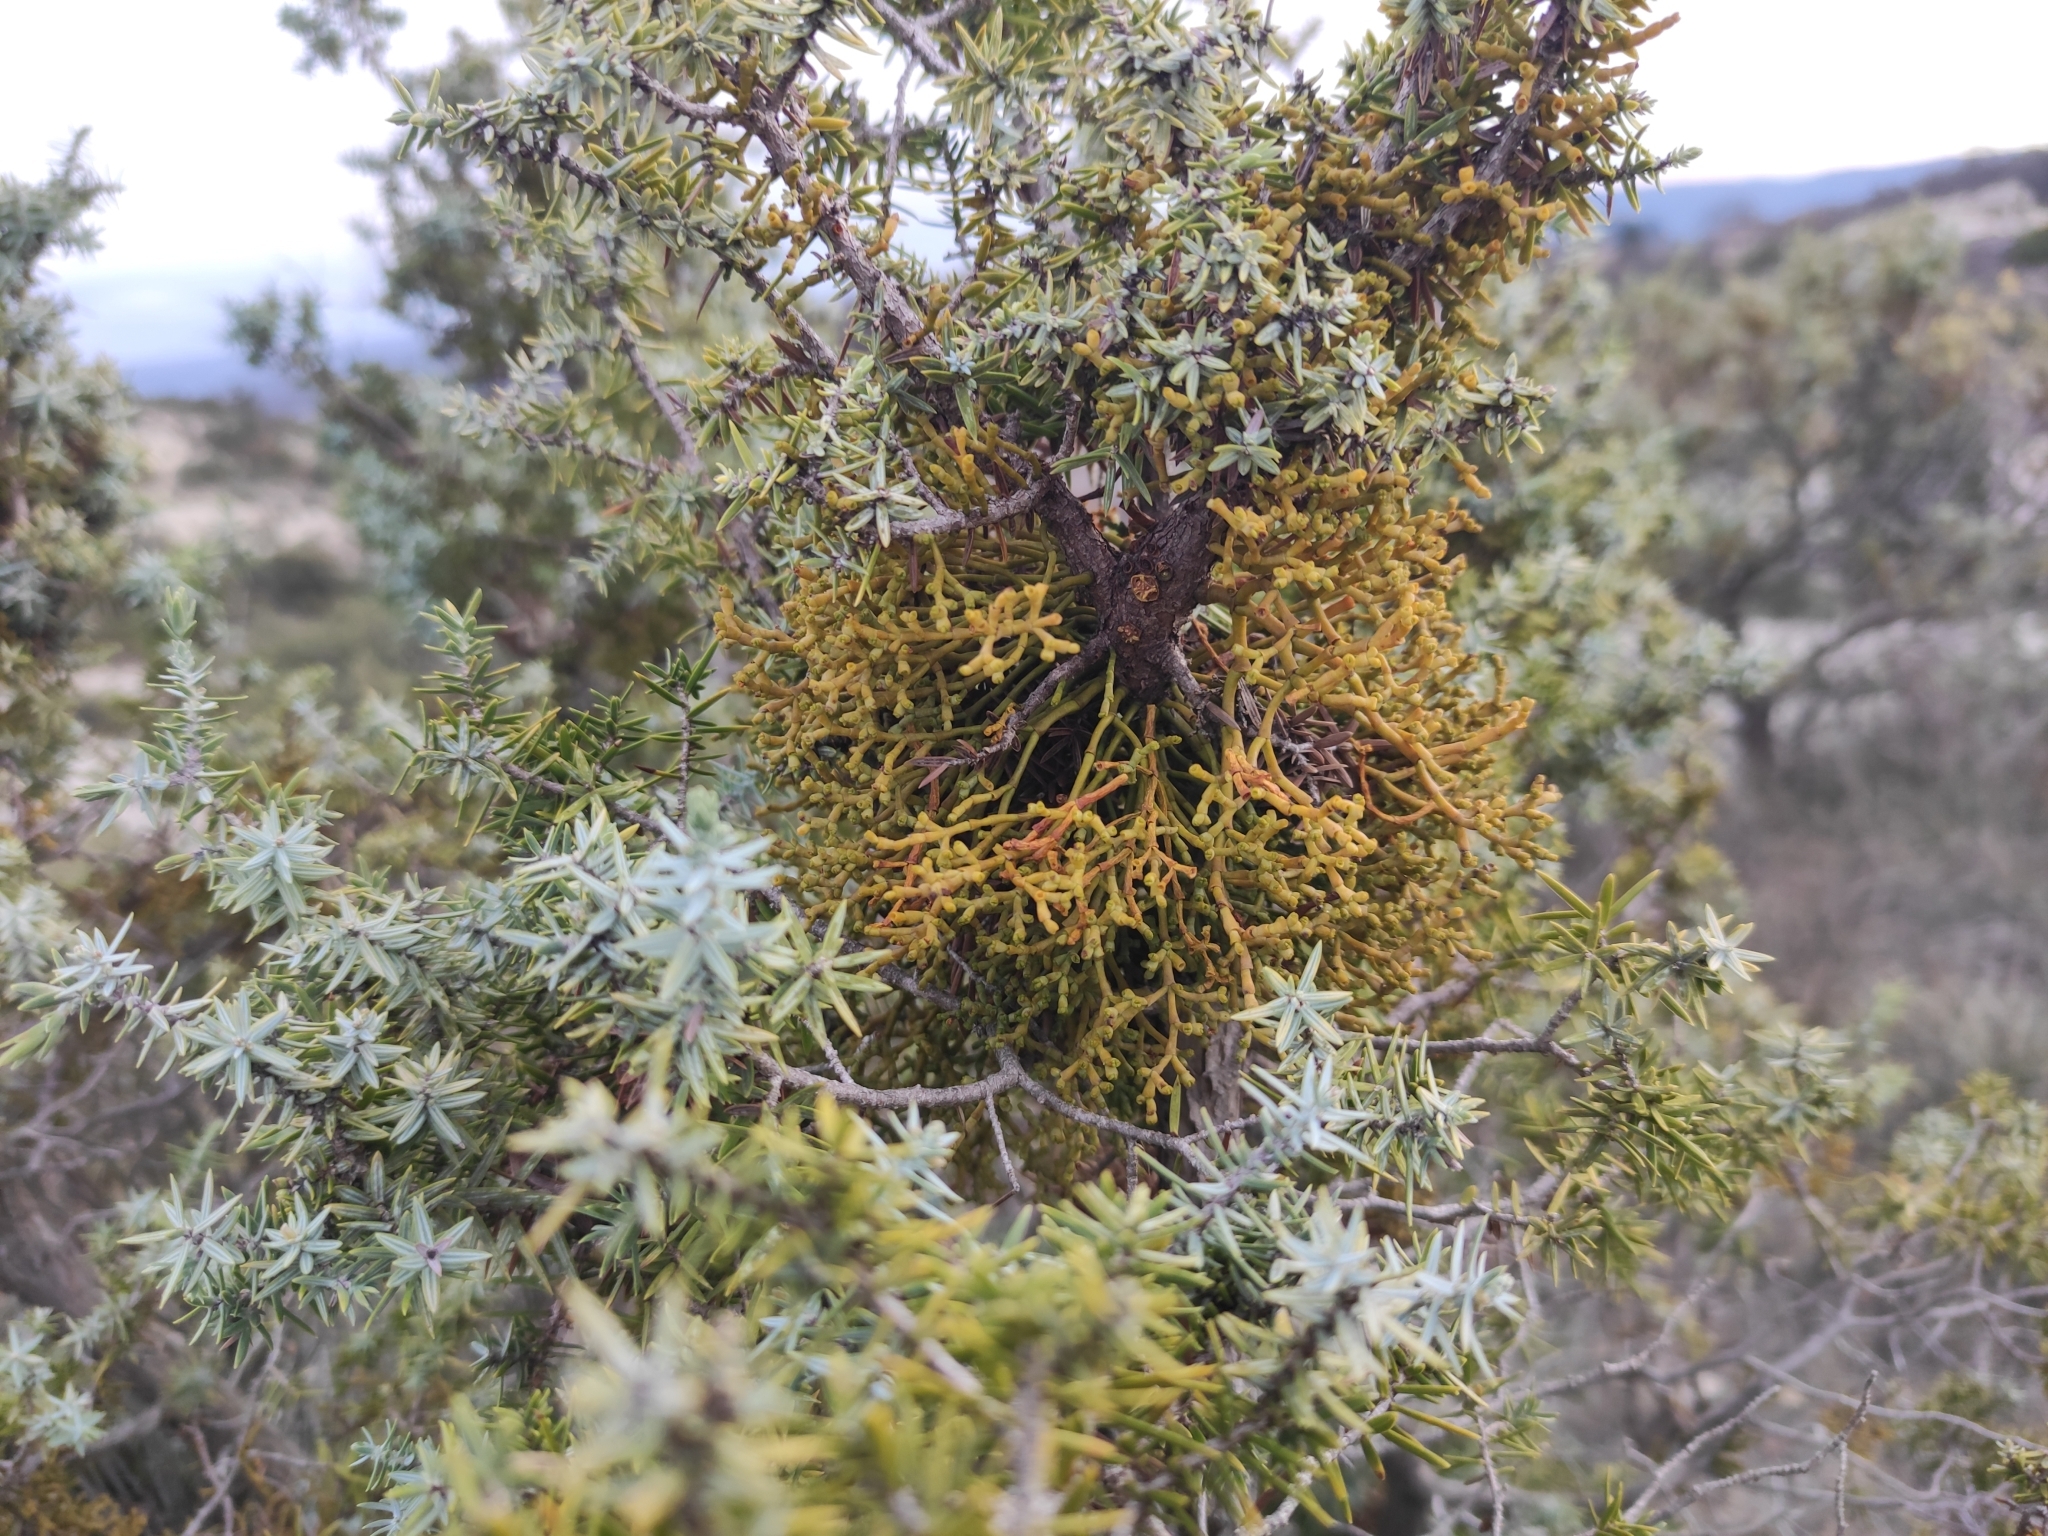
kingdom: Plantae
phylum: Tracheophyta
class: Magnoliopsida
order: Santalales
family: Viscaceae
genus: Arceuthobium
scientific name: Arceuthobium oxycedri
